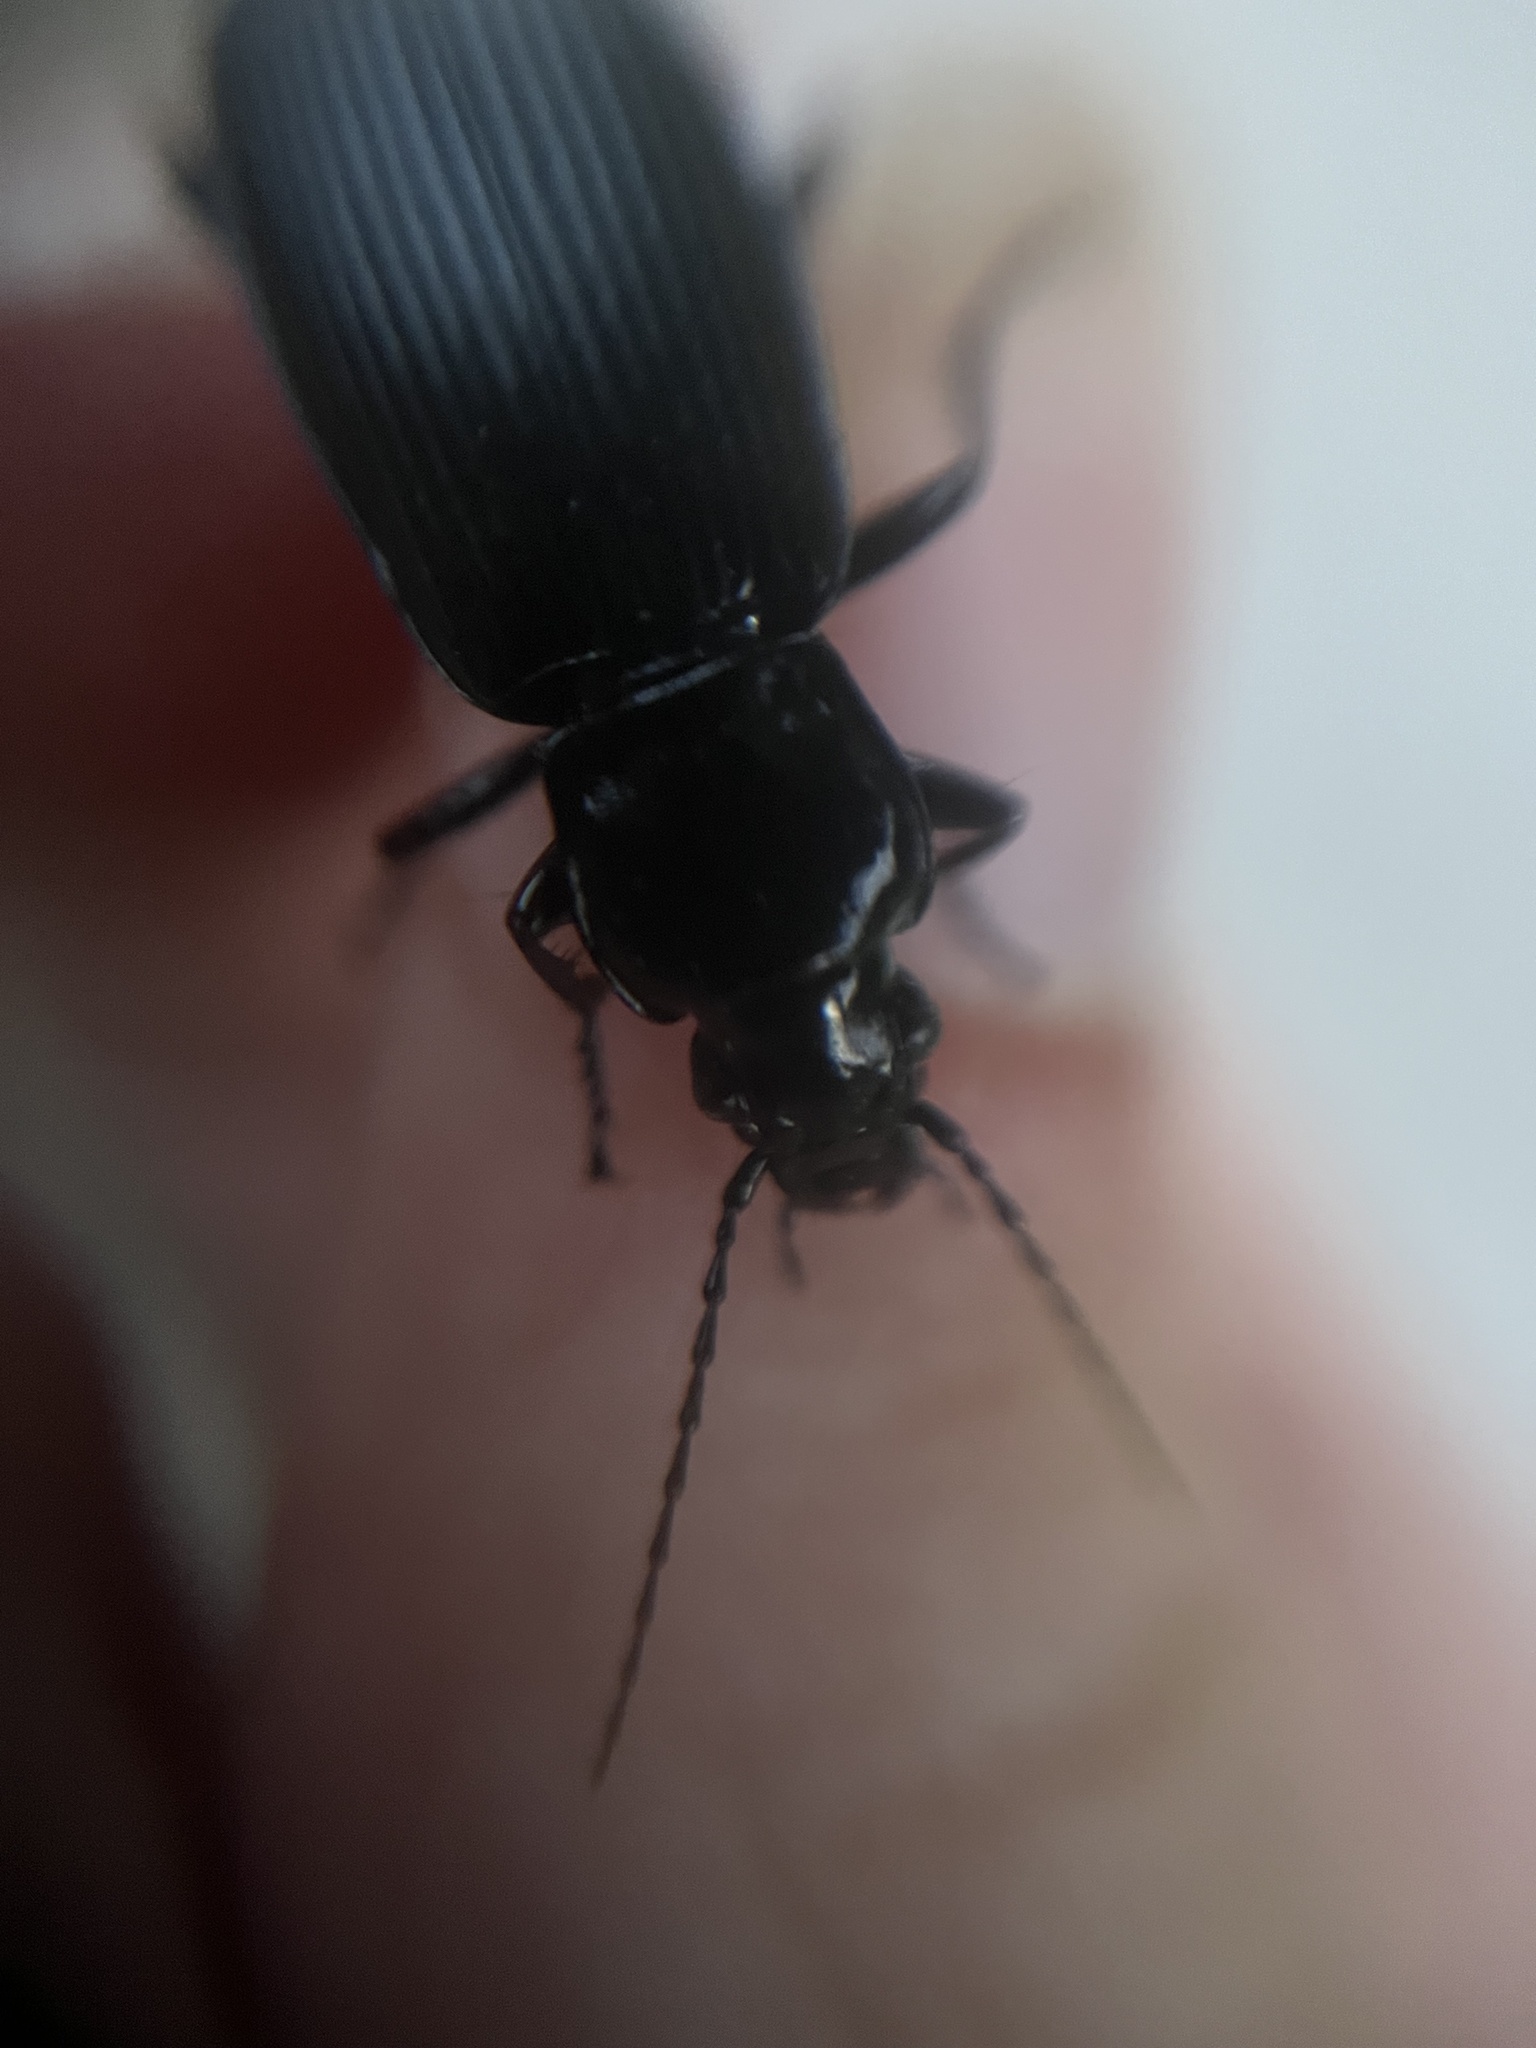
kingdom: Animalia
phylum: Arthropoda
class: Insecta
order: Coleoptera
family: Carabidae
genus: Pterostichus
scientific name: Pterostichus niger
